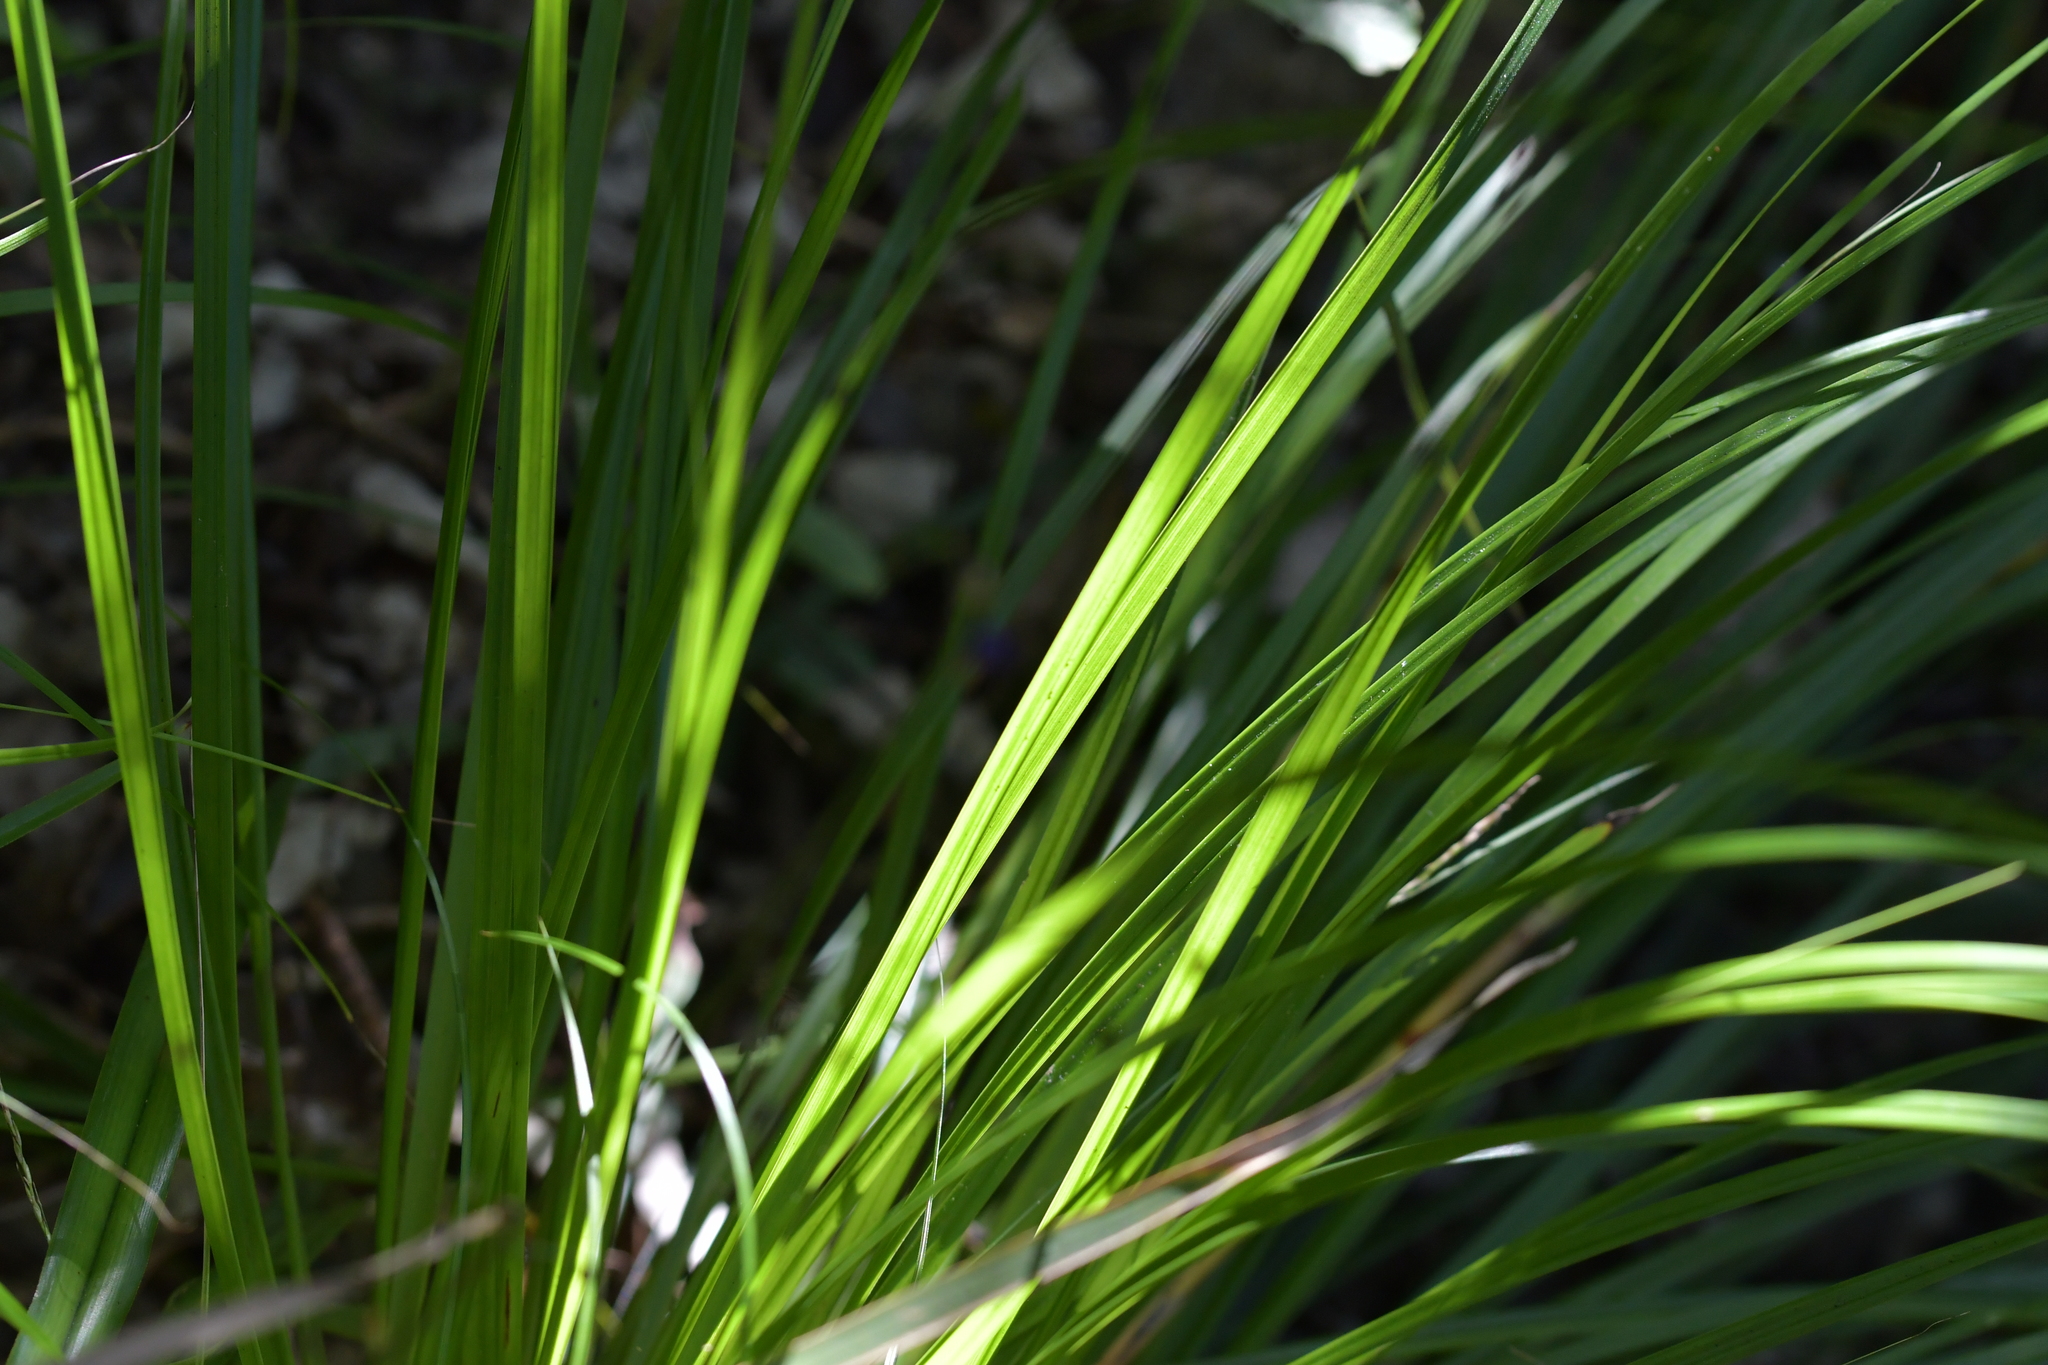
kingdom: Plantae
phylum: Tracheophyta
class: Liliopsida
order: Asparagales
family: Asphodelaceae
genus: Dianella
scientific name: Dianella nigra
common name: New zealand-blueberry
